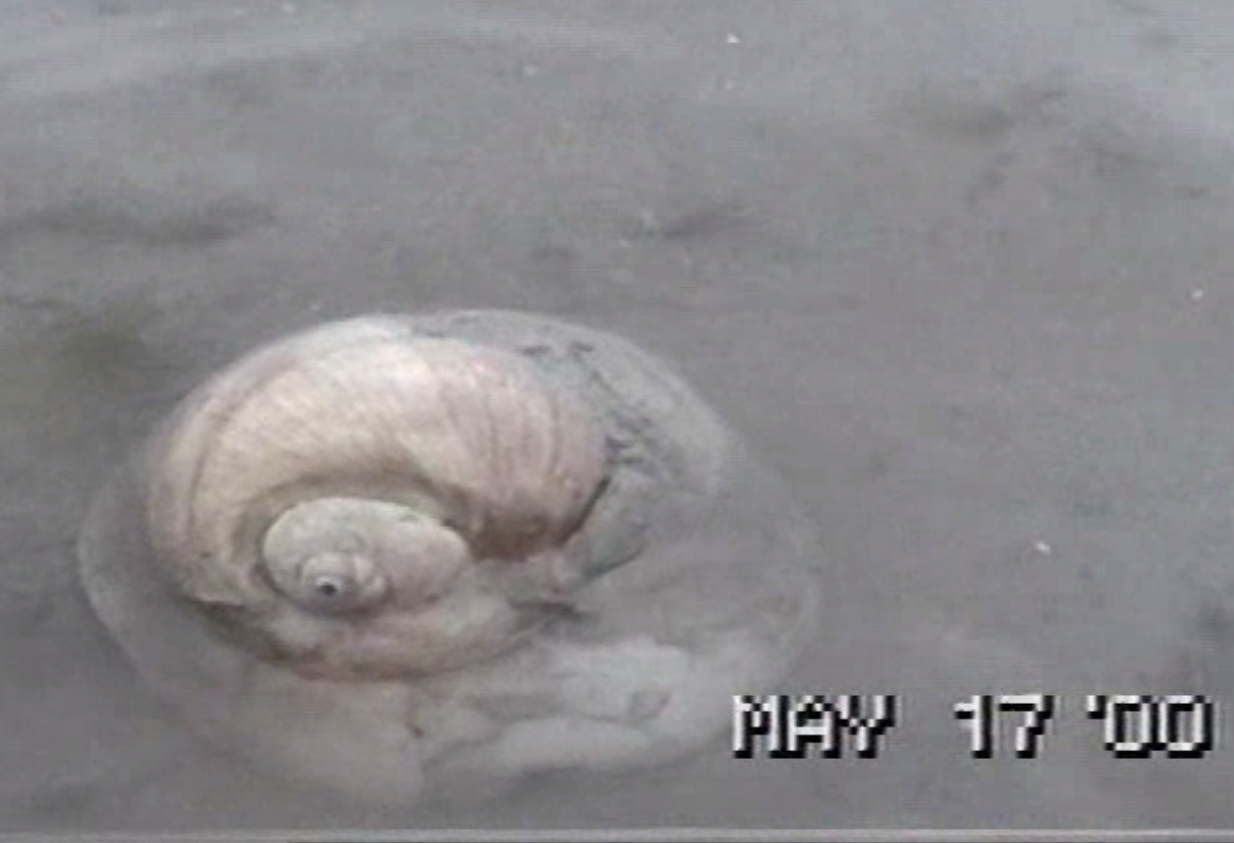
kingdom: Animalia
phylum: Mollusca
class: Gastropoda
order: Littorinimorpha
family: Naticidae
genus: Neverita
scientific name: Neverita lewisii
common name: Lewis' moonsnail
